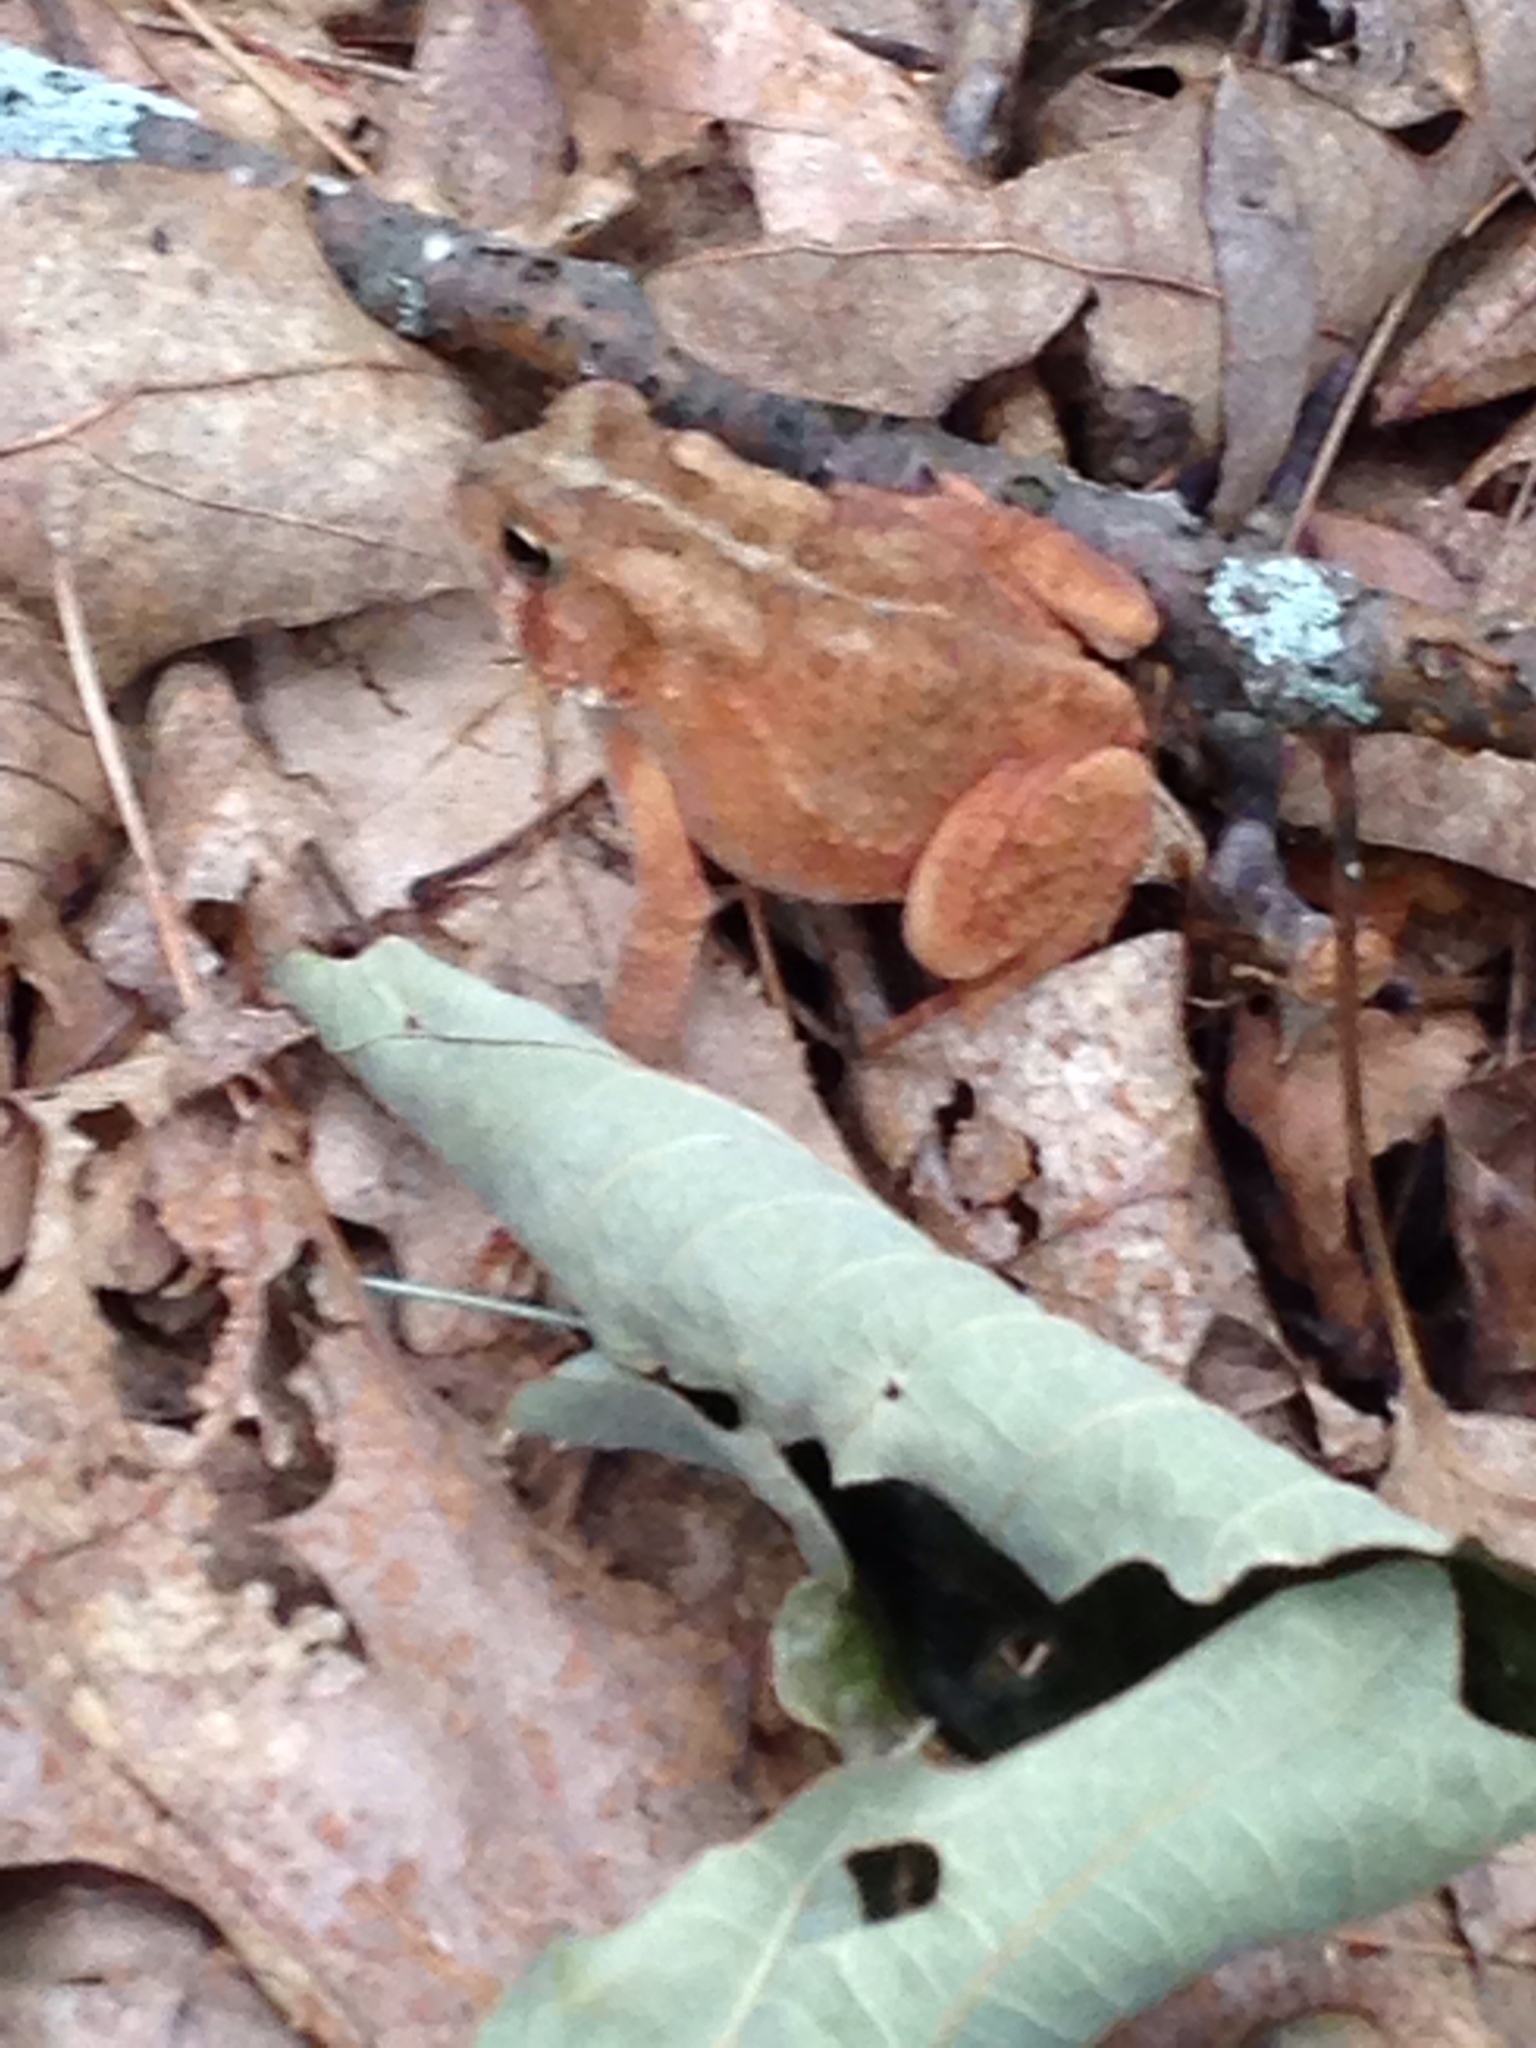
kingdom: Animalia
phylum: Chordata
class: Amphibia
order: Anura
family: Bufonidae
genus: Anaxyrus
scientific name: Anaxyrus americanus
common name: American toad
